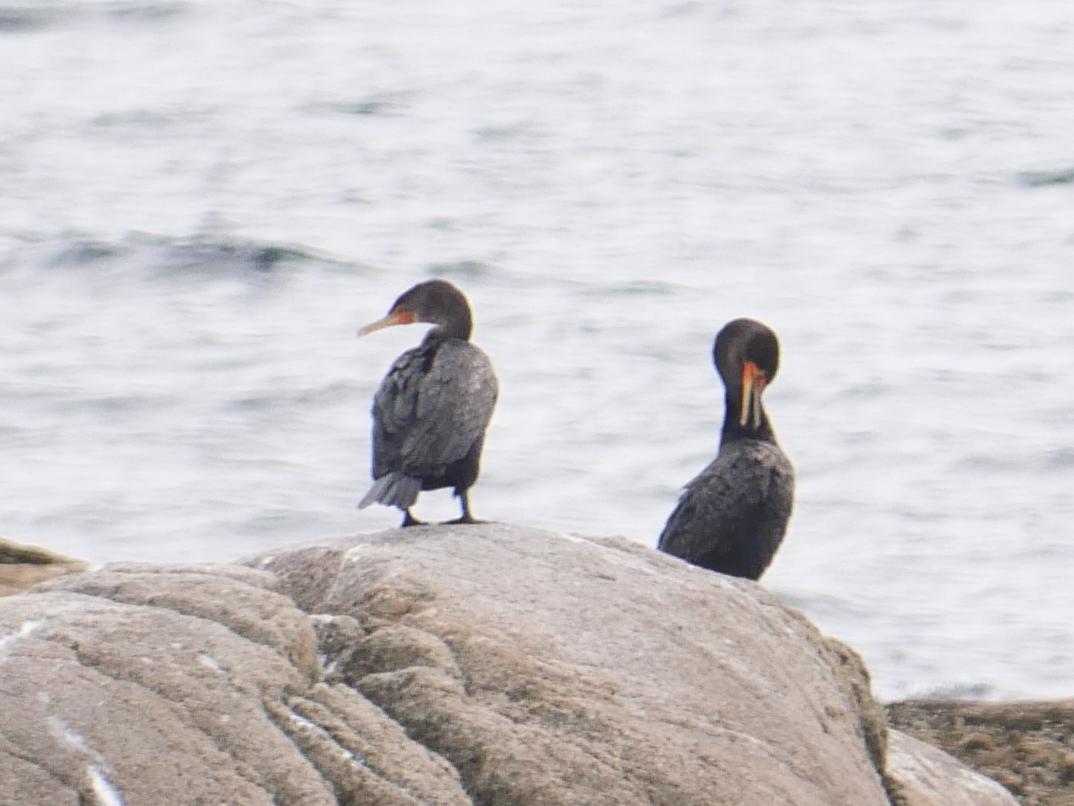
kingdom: Animalia
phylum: Chordata
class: Aves
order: Suliformes
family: Phalacrocoracidae
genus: Phalacrocorax
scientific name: Phalacrocorax auritus
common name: Double-crested cormorant
